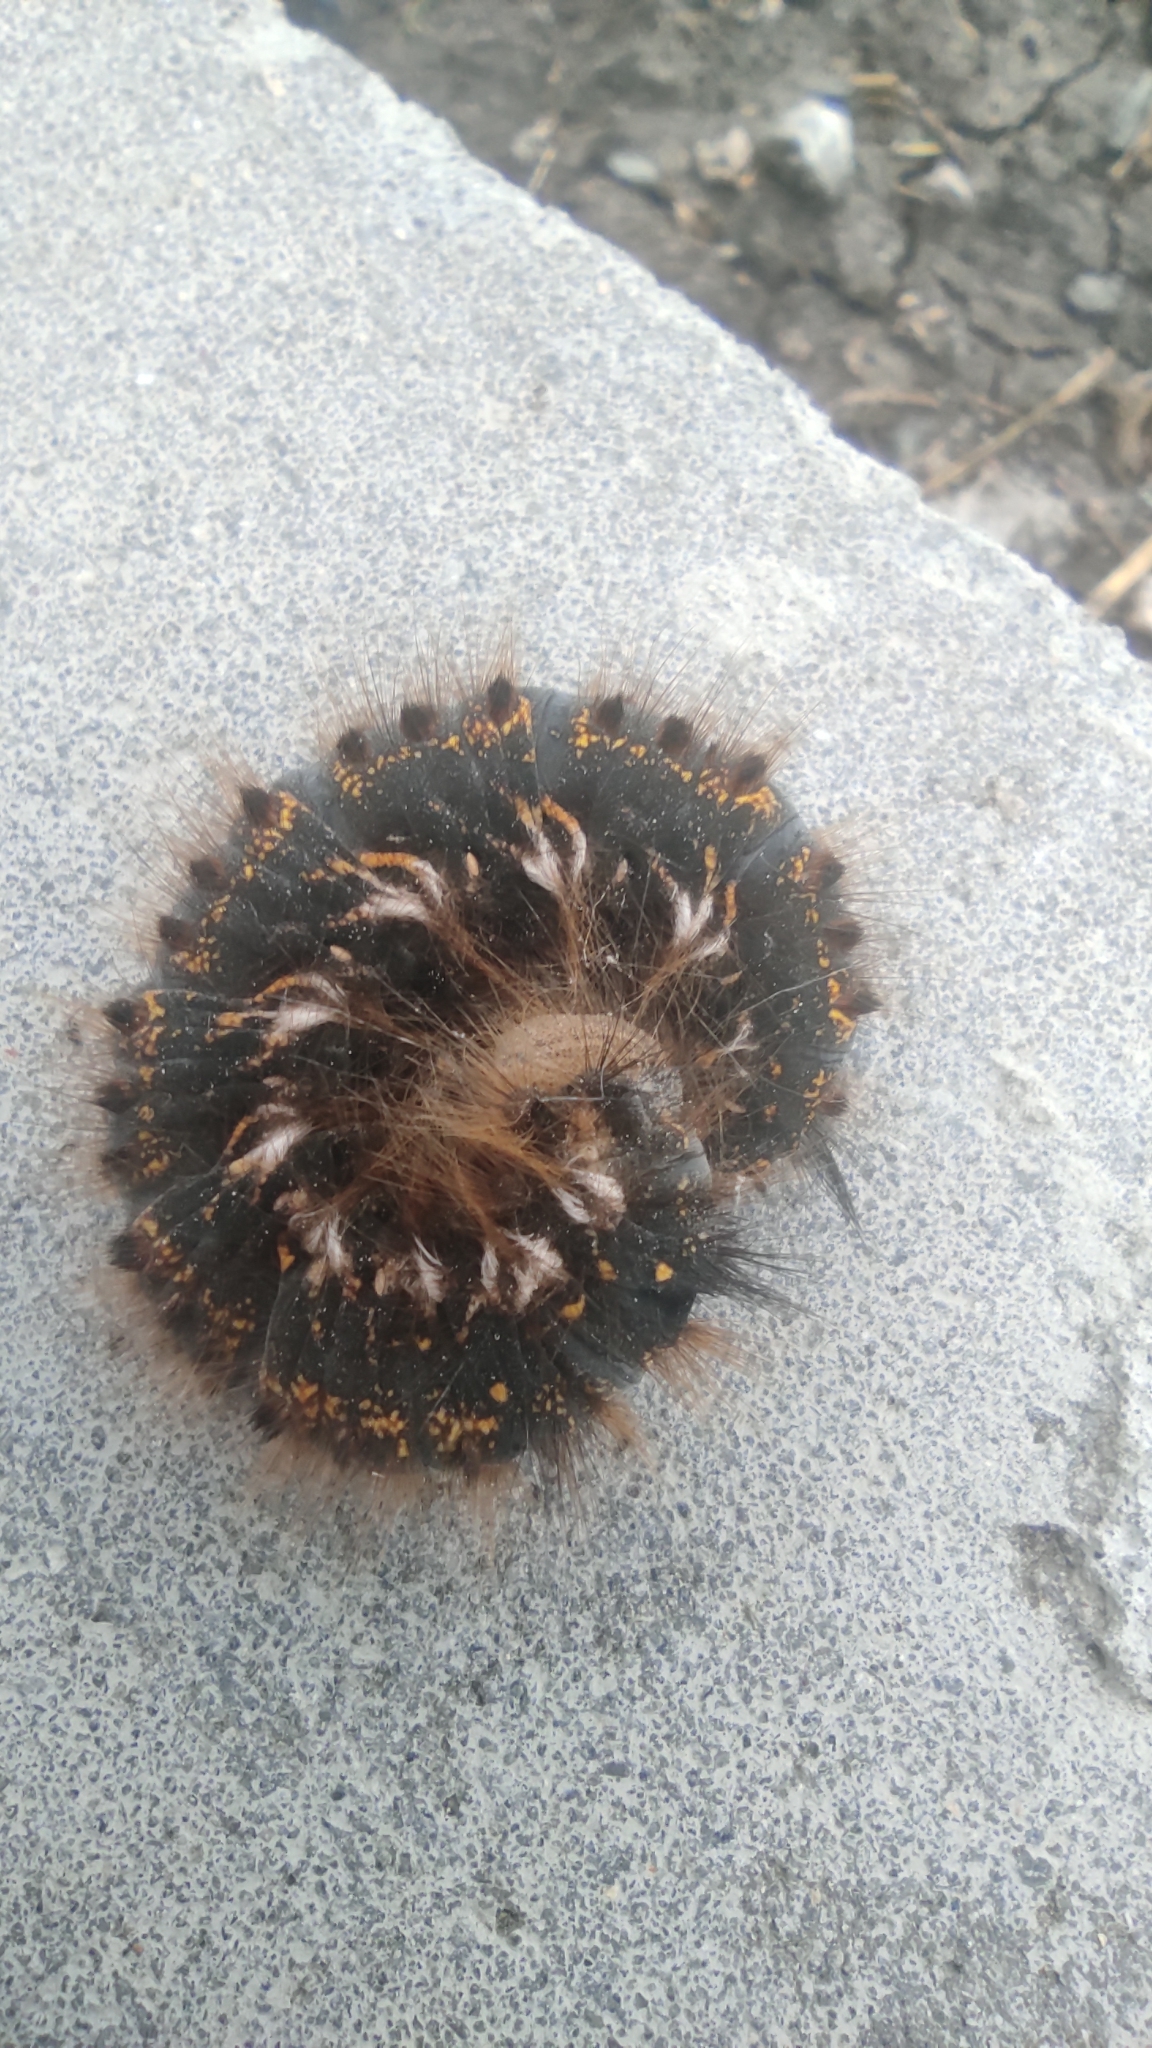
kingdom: Animalia
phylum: Arthropoda
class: Insecta
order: Lepidoptera
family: Lasiocampidae
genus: Euthrix
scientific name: Euthrix potatoria
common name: Drinker
